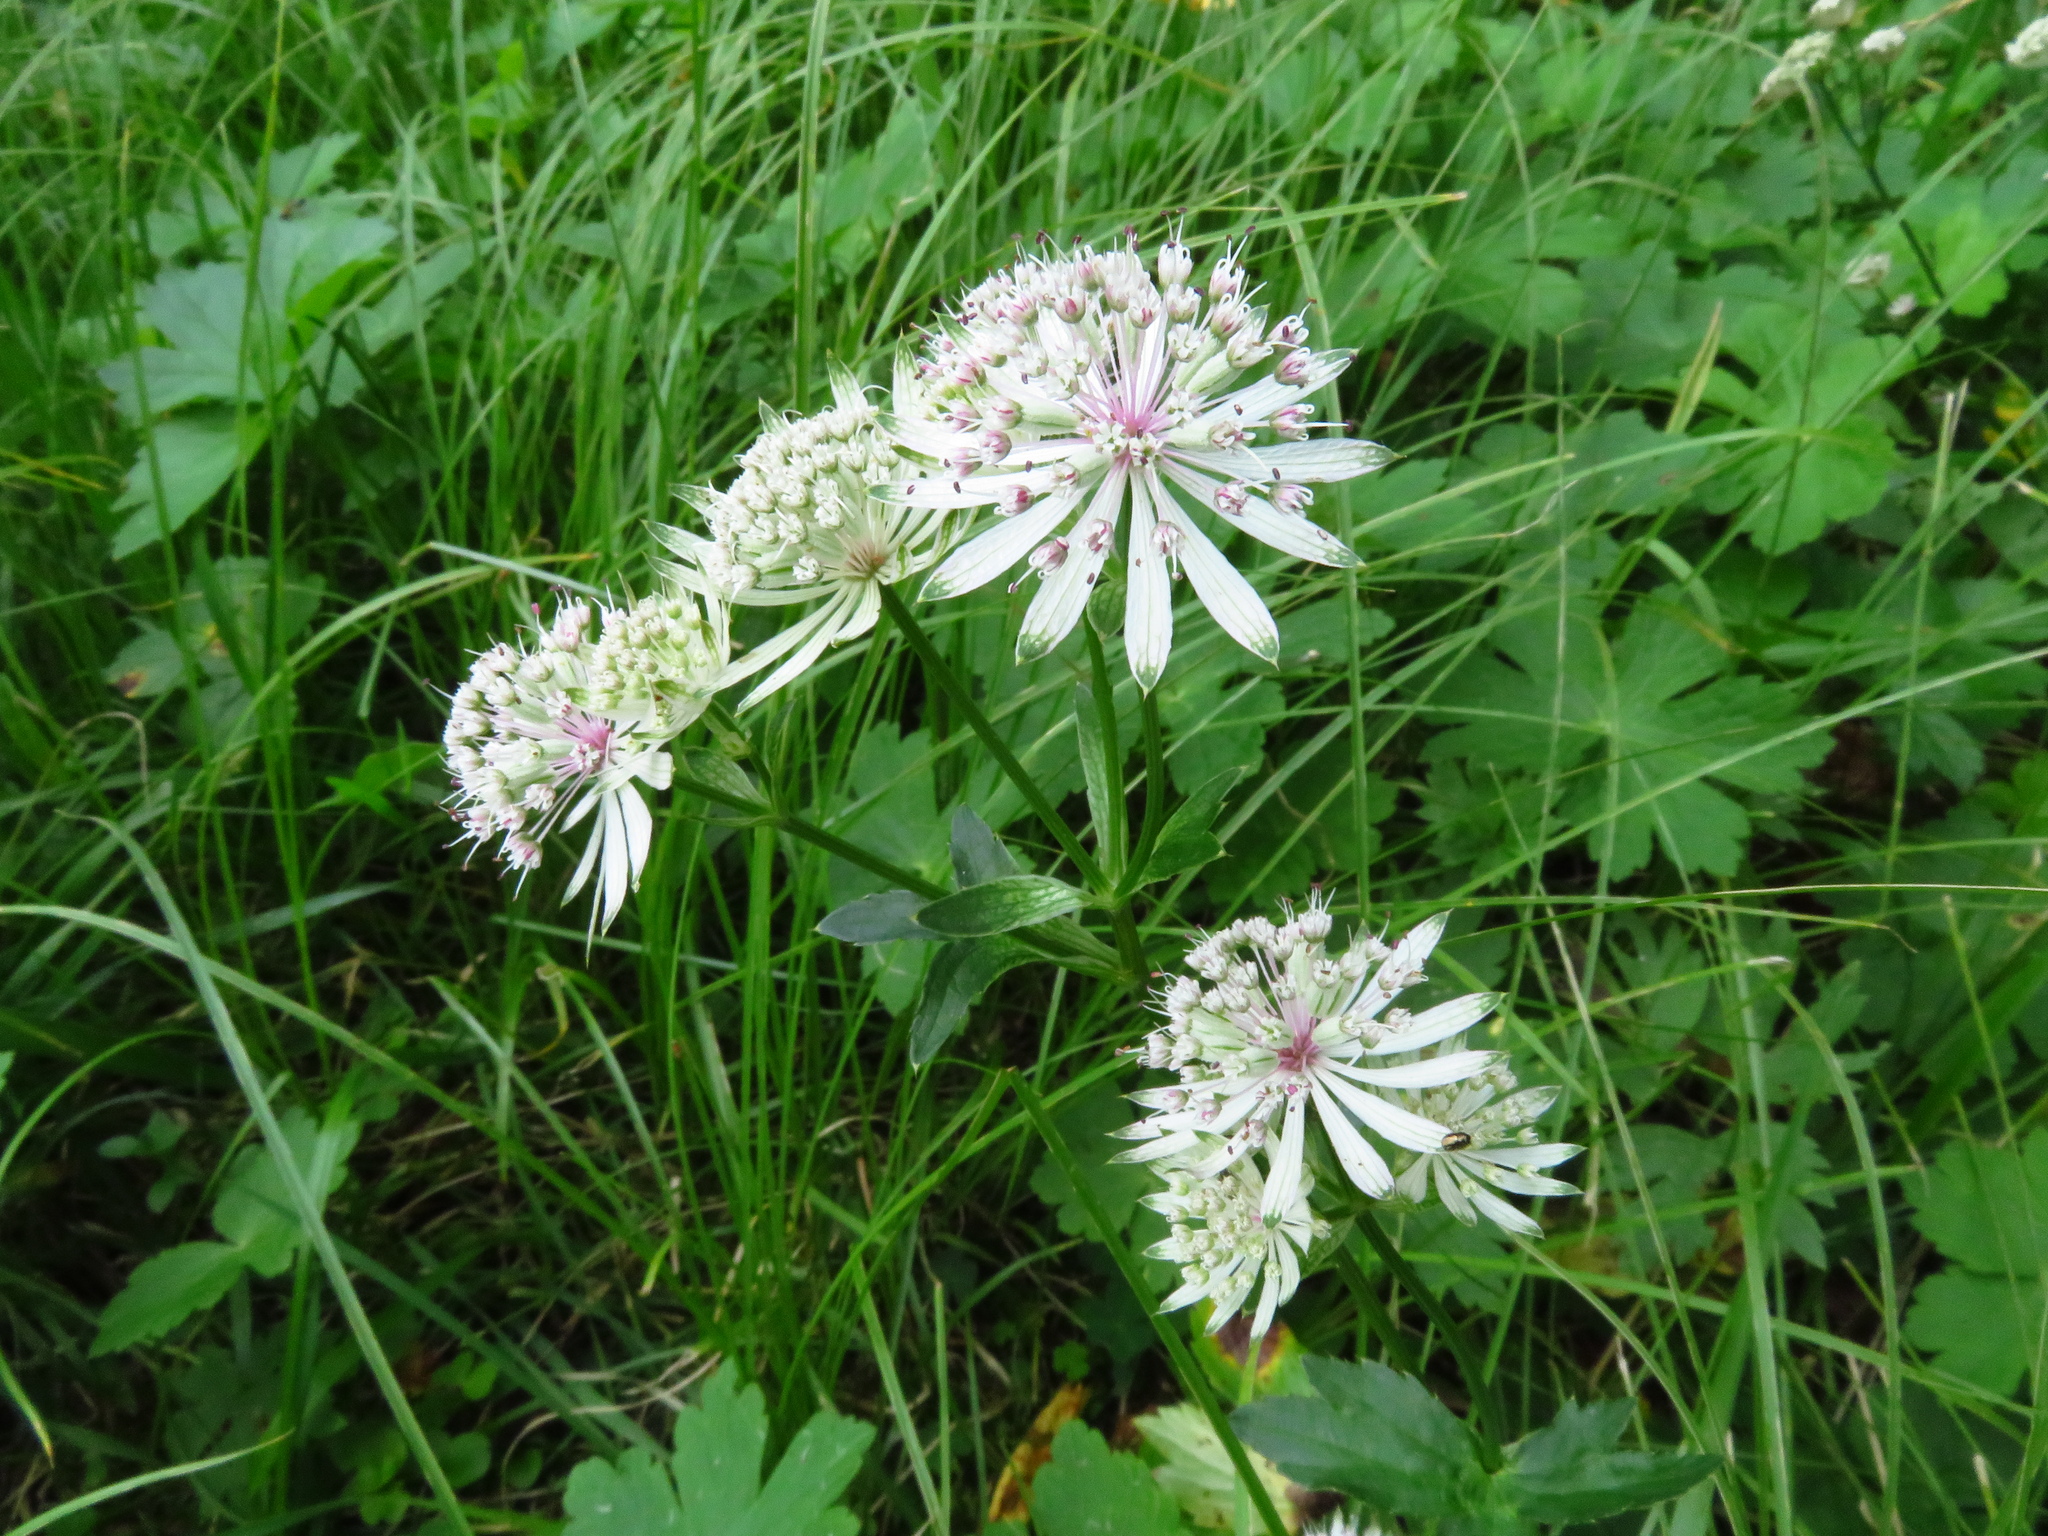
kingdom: Plantae
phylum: Tracheophyta
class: Magnoliopsida
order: Apiales
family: Apiaceae
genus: Astrantia
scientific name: Astrantia major
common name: Greater masterwort
